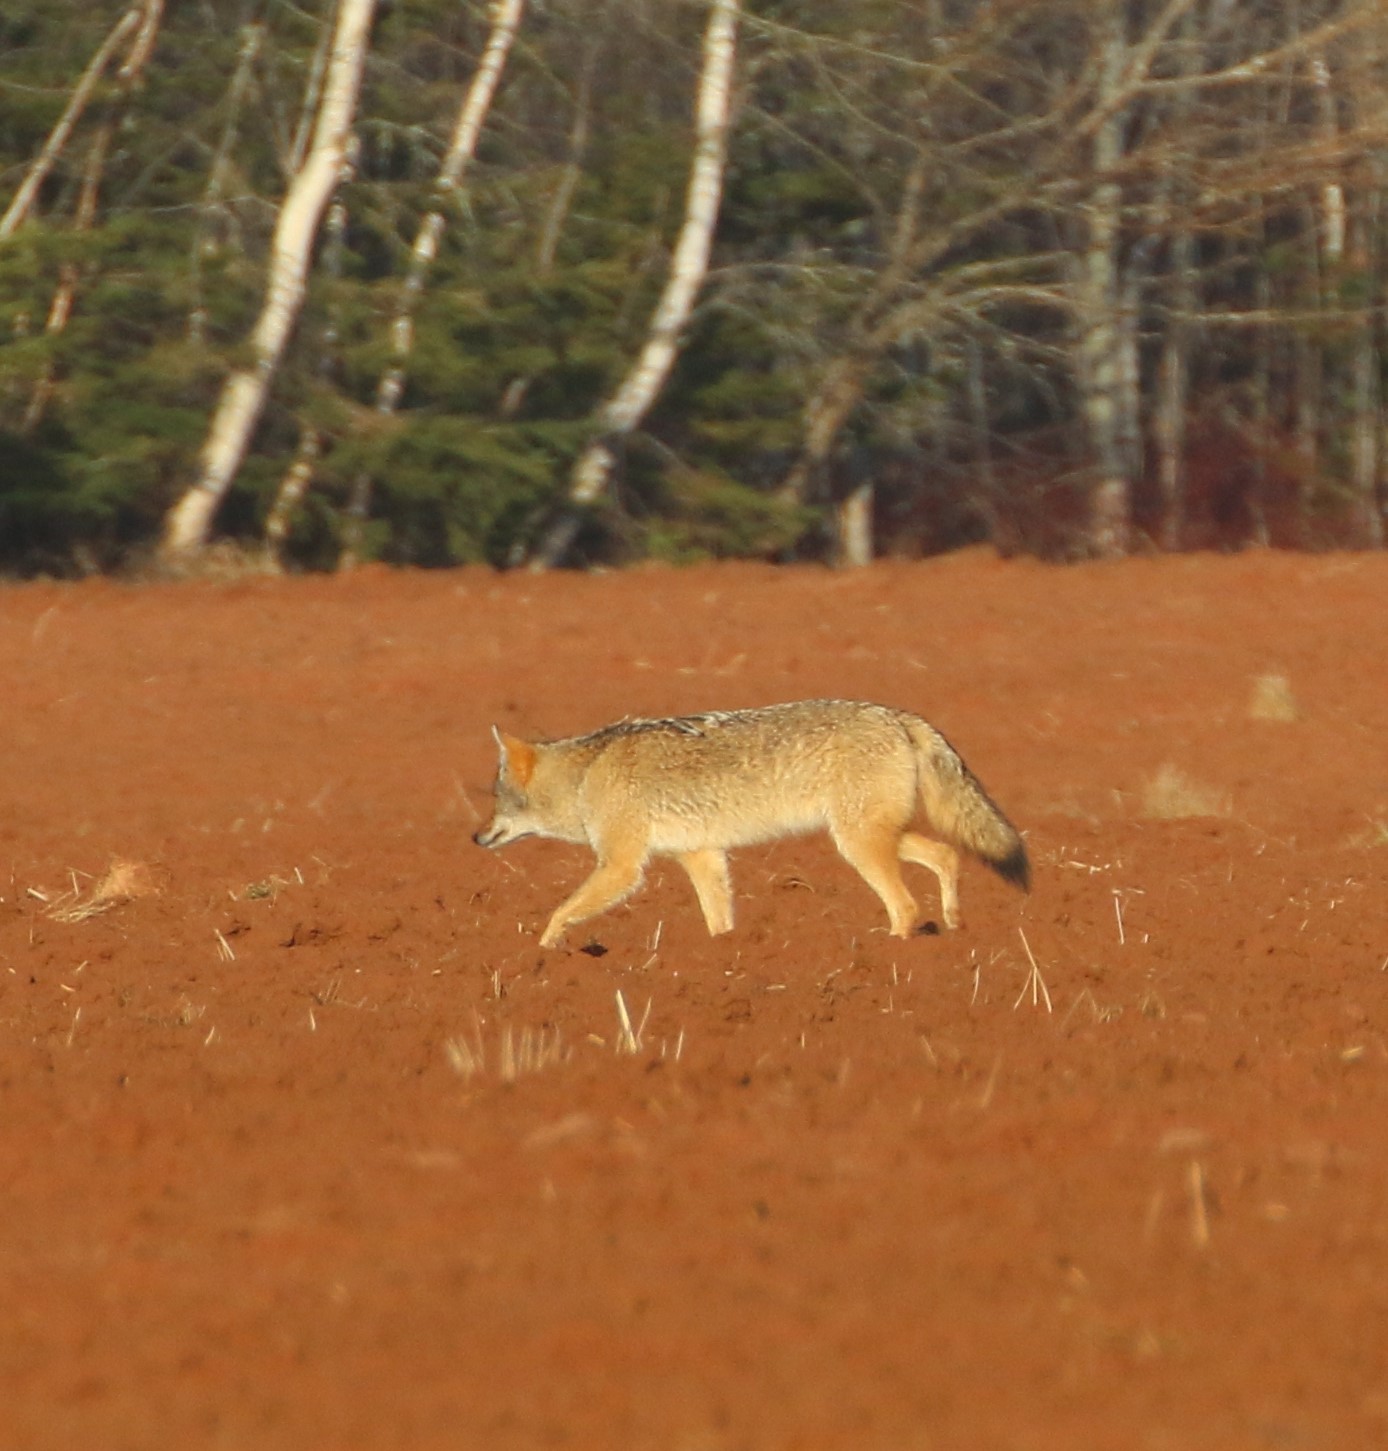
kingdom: Animalia
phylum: Chordata
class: Mammalia
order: Carnivora
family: Canidae
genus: Canis
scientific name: Canis latrans
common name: Coyote
